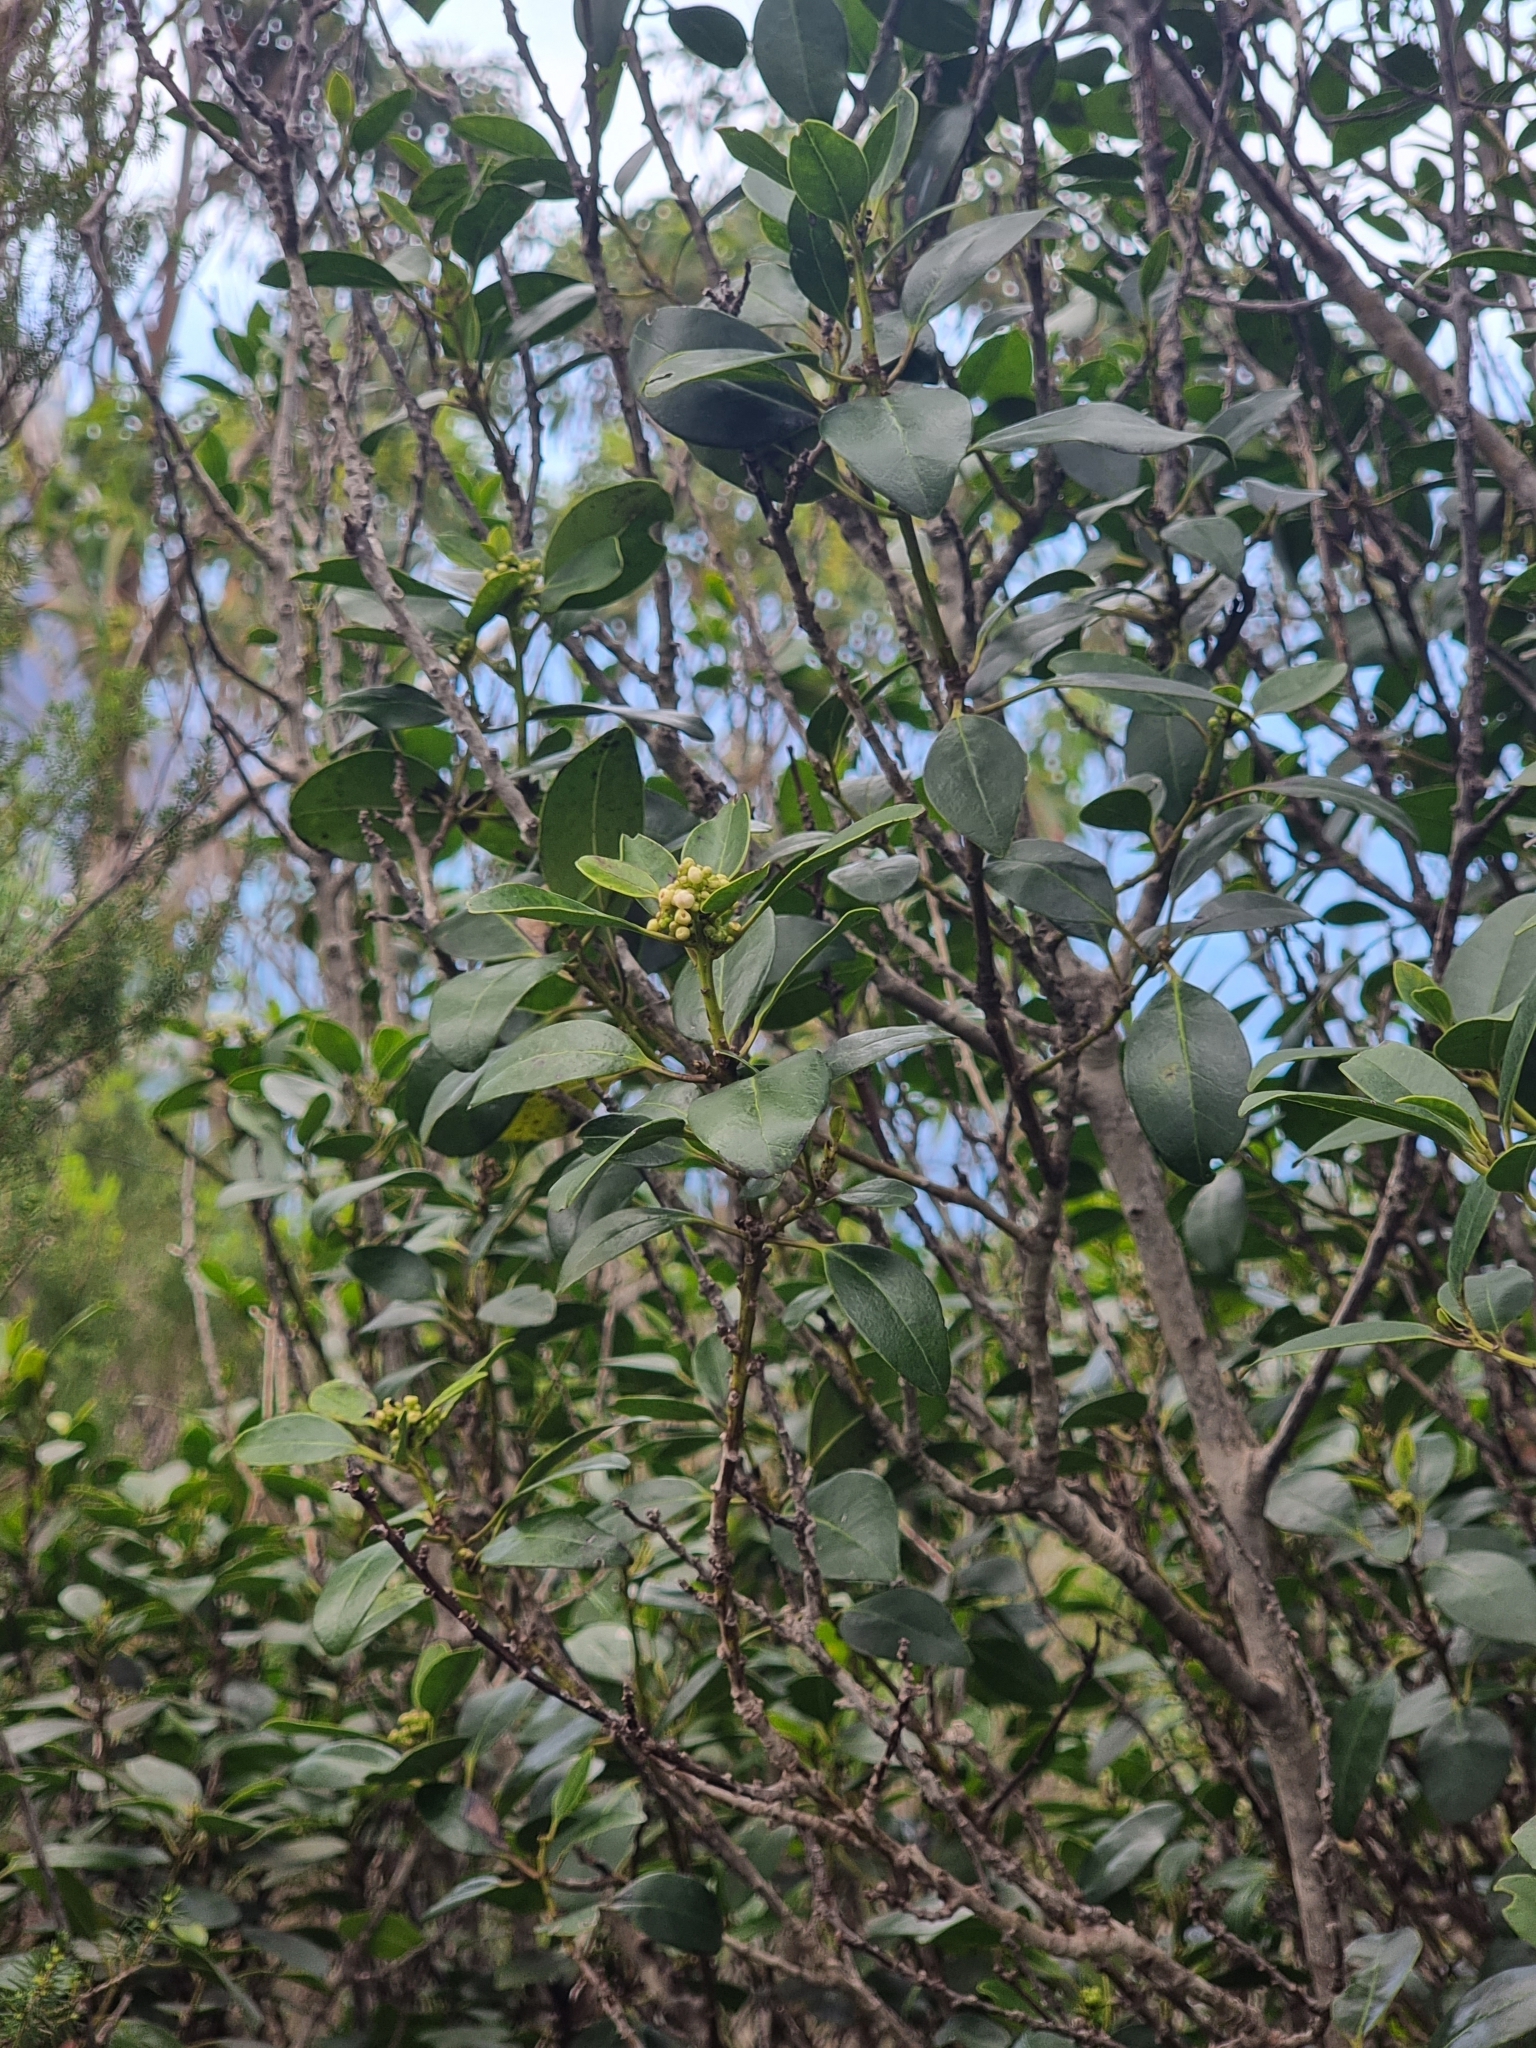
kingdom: Plantae
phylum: Tracheophyta
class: Magnoliopsida
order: Aquifoliales
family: Aquifoliaceae
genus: Ilex
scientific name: Ilex canariensis
